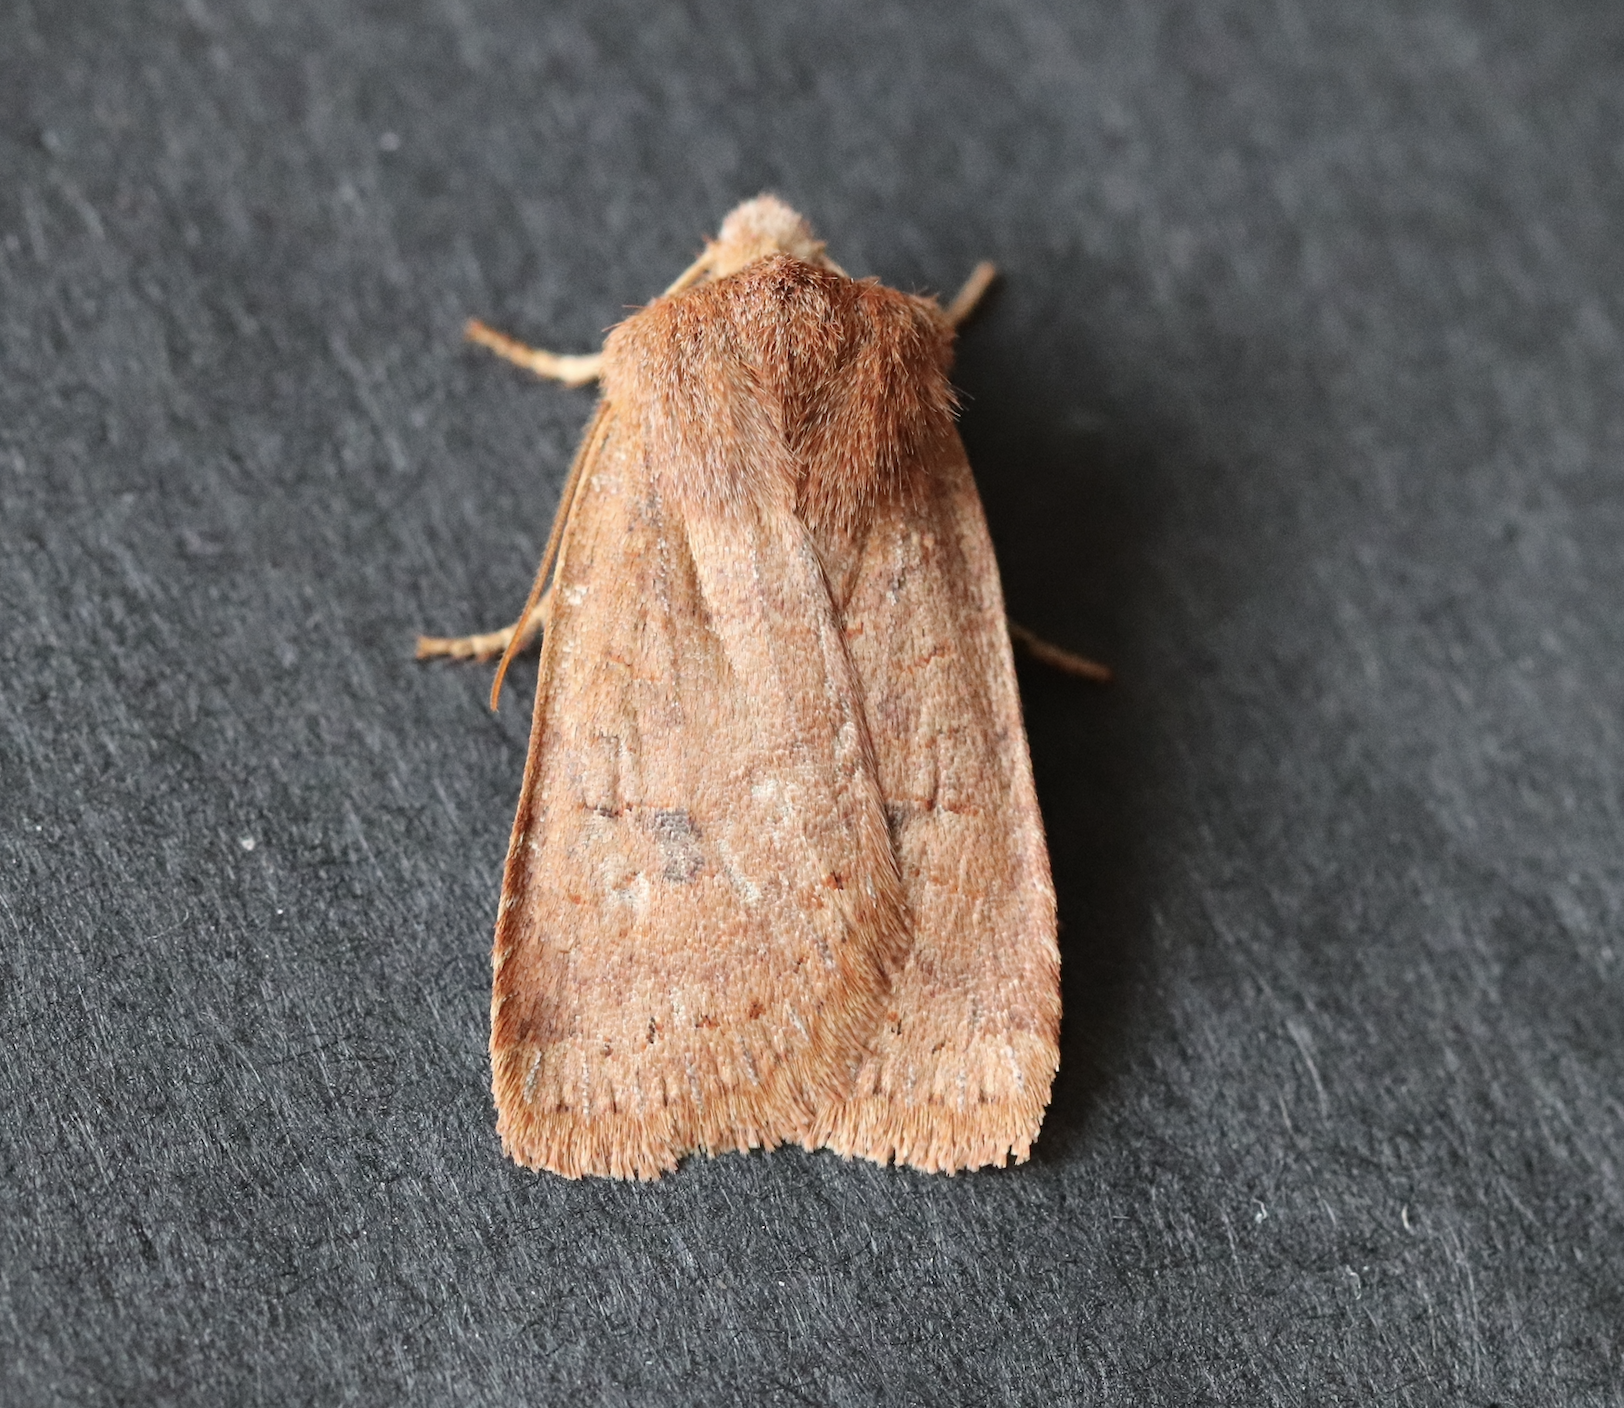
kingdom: Animalia
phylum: Arthropoda
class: Insecta
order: Lepidoptera
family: Noctuidae
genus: Conistra
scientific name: Conistra vaccinii
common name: Chestnut
